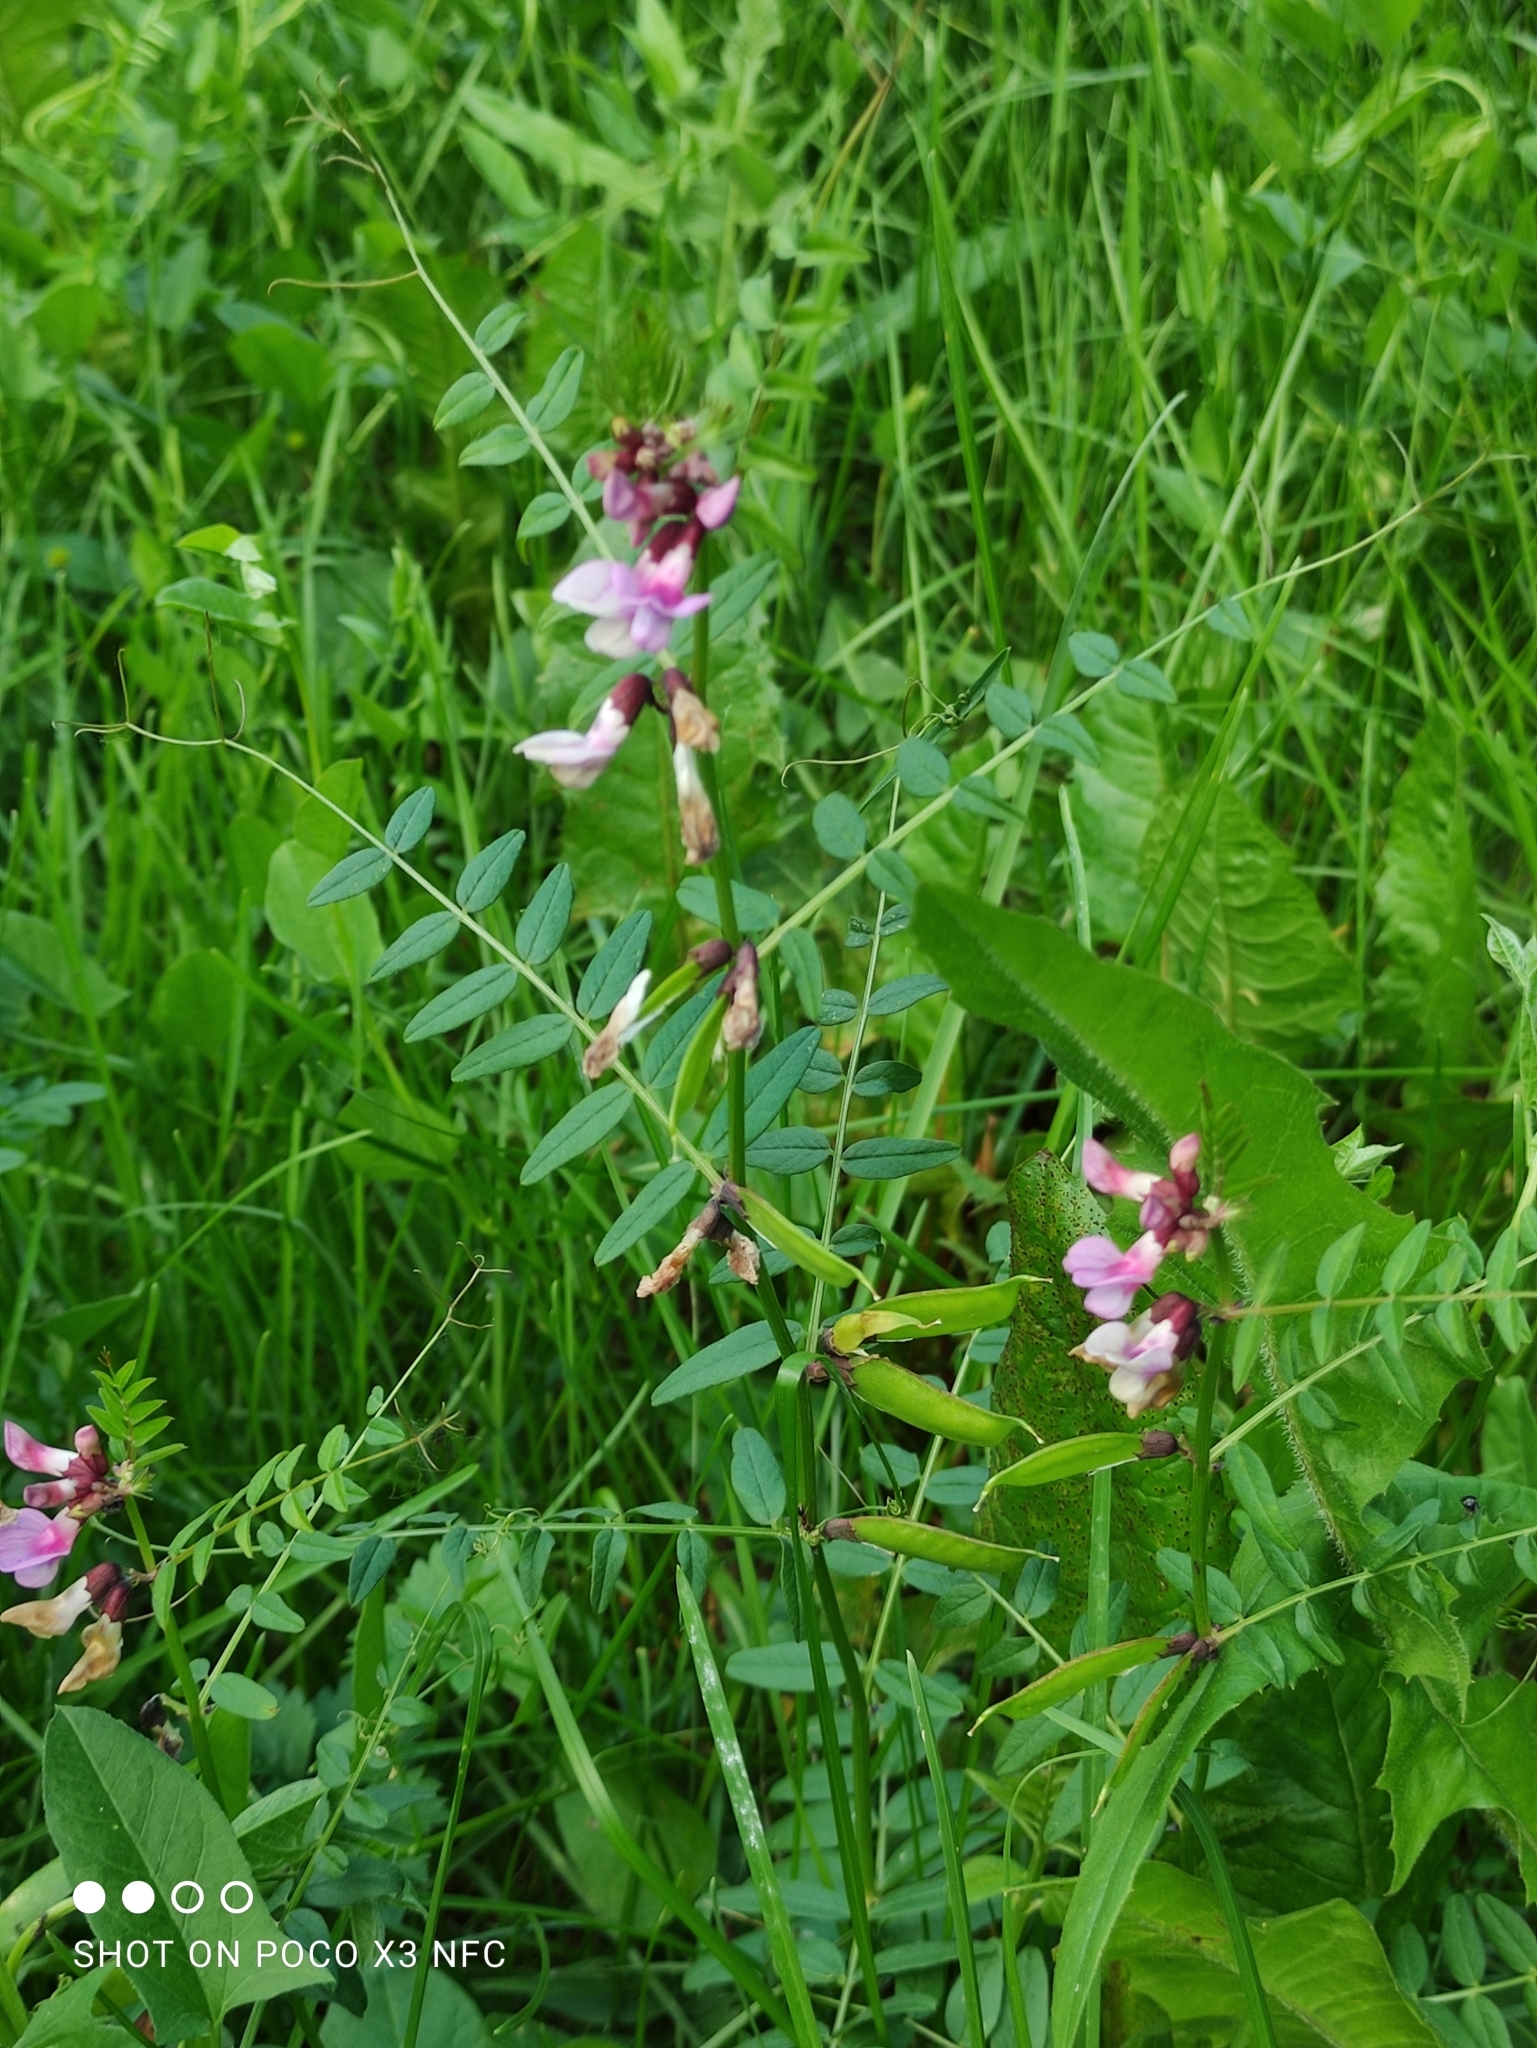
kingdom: Plantae
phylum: Tracheophyta
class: Magnoliopsida
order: Fabales
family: Fabaceae
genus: Vicia
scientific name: Vicia sepium
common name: Bush vetch
